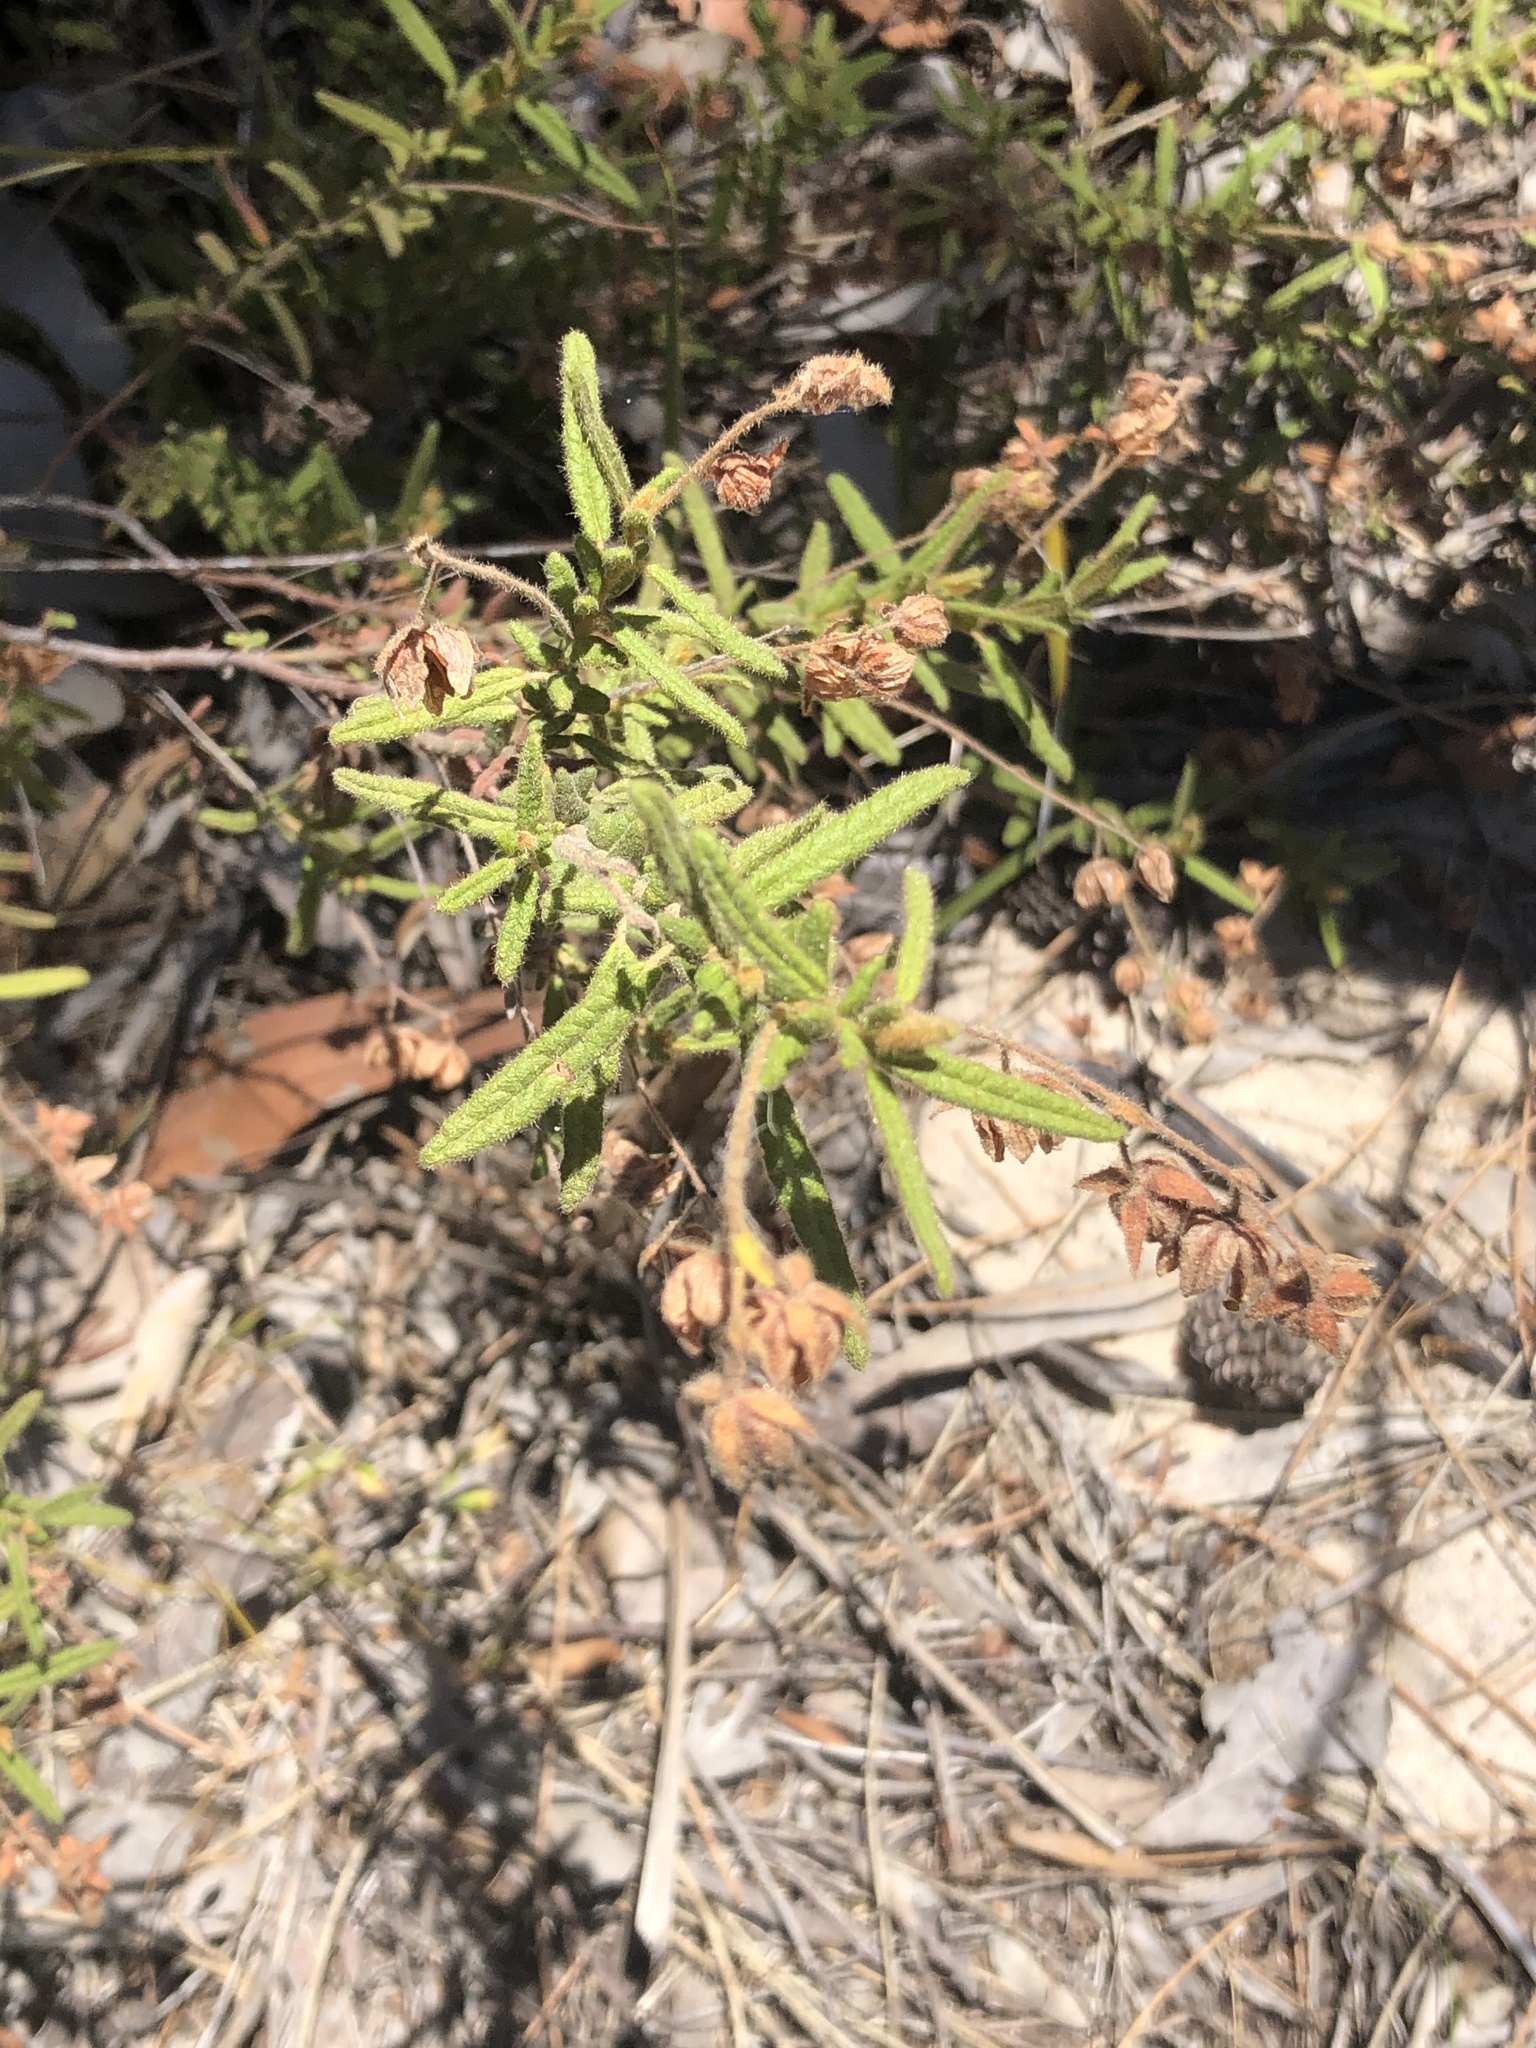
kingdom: Plantae
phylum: Tracheophyta
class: Magnoliopsida
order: Malvales
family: Malvaceae
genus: Thomasia
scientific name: Thomasia petalocalyx
